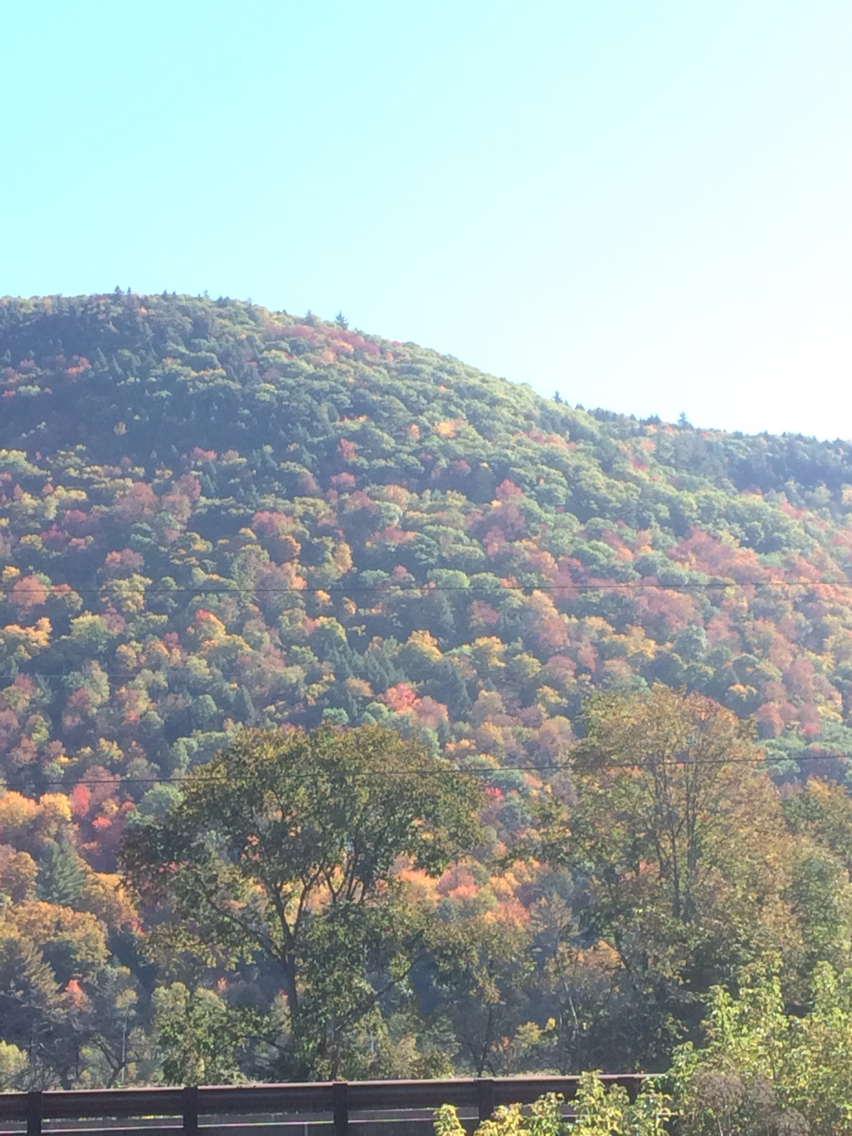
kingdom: Plantae
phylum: Tracheophyta
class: Magnoliopsida
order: Fagales
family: Fagaceae
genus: Quercus
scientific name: Quercus rubra
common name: Red oak
